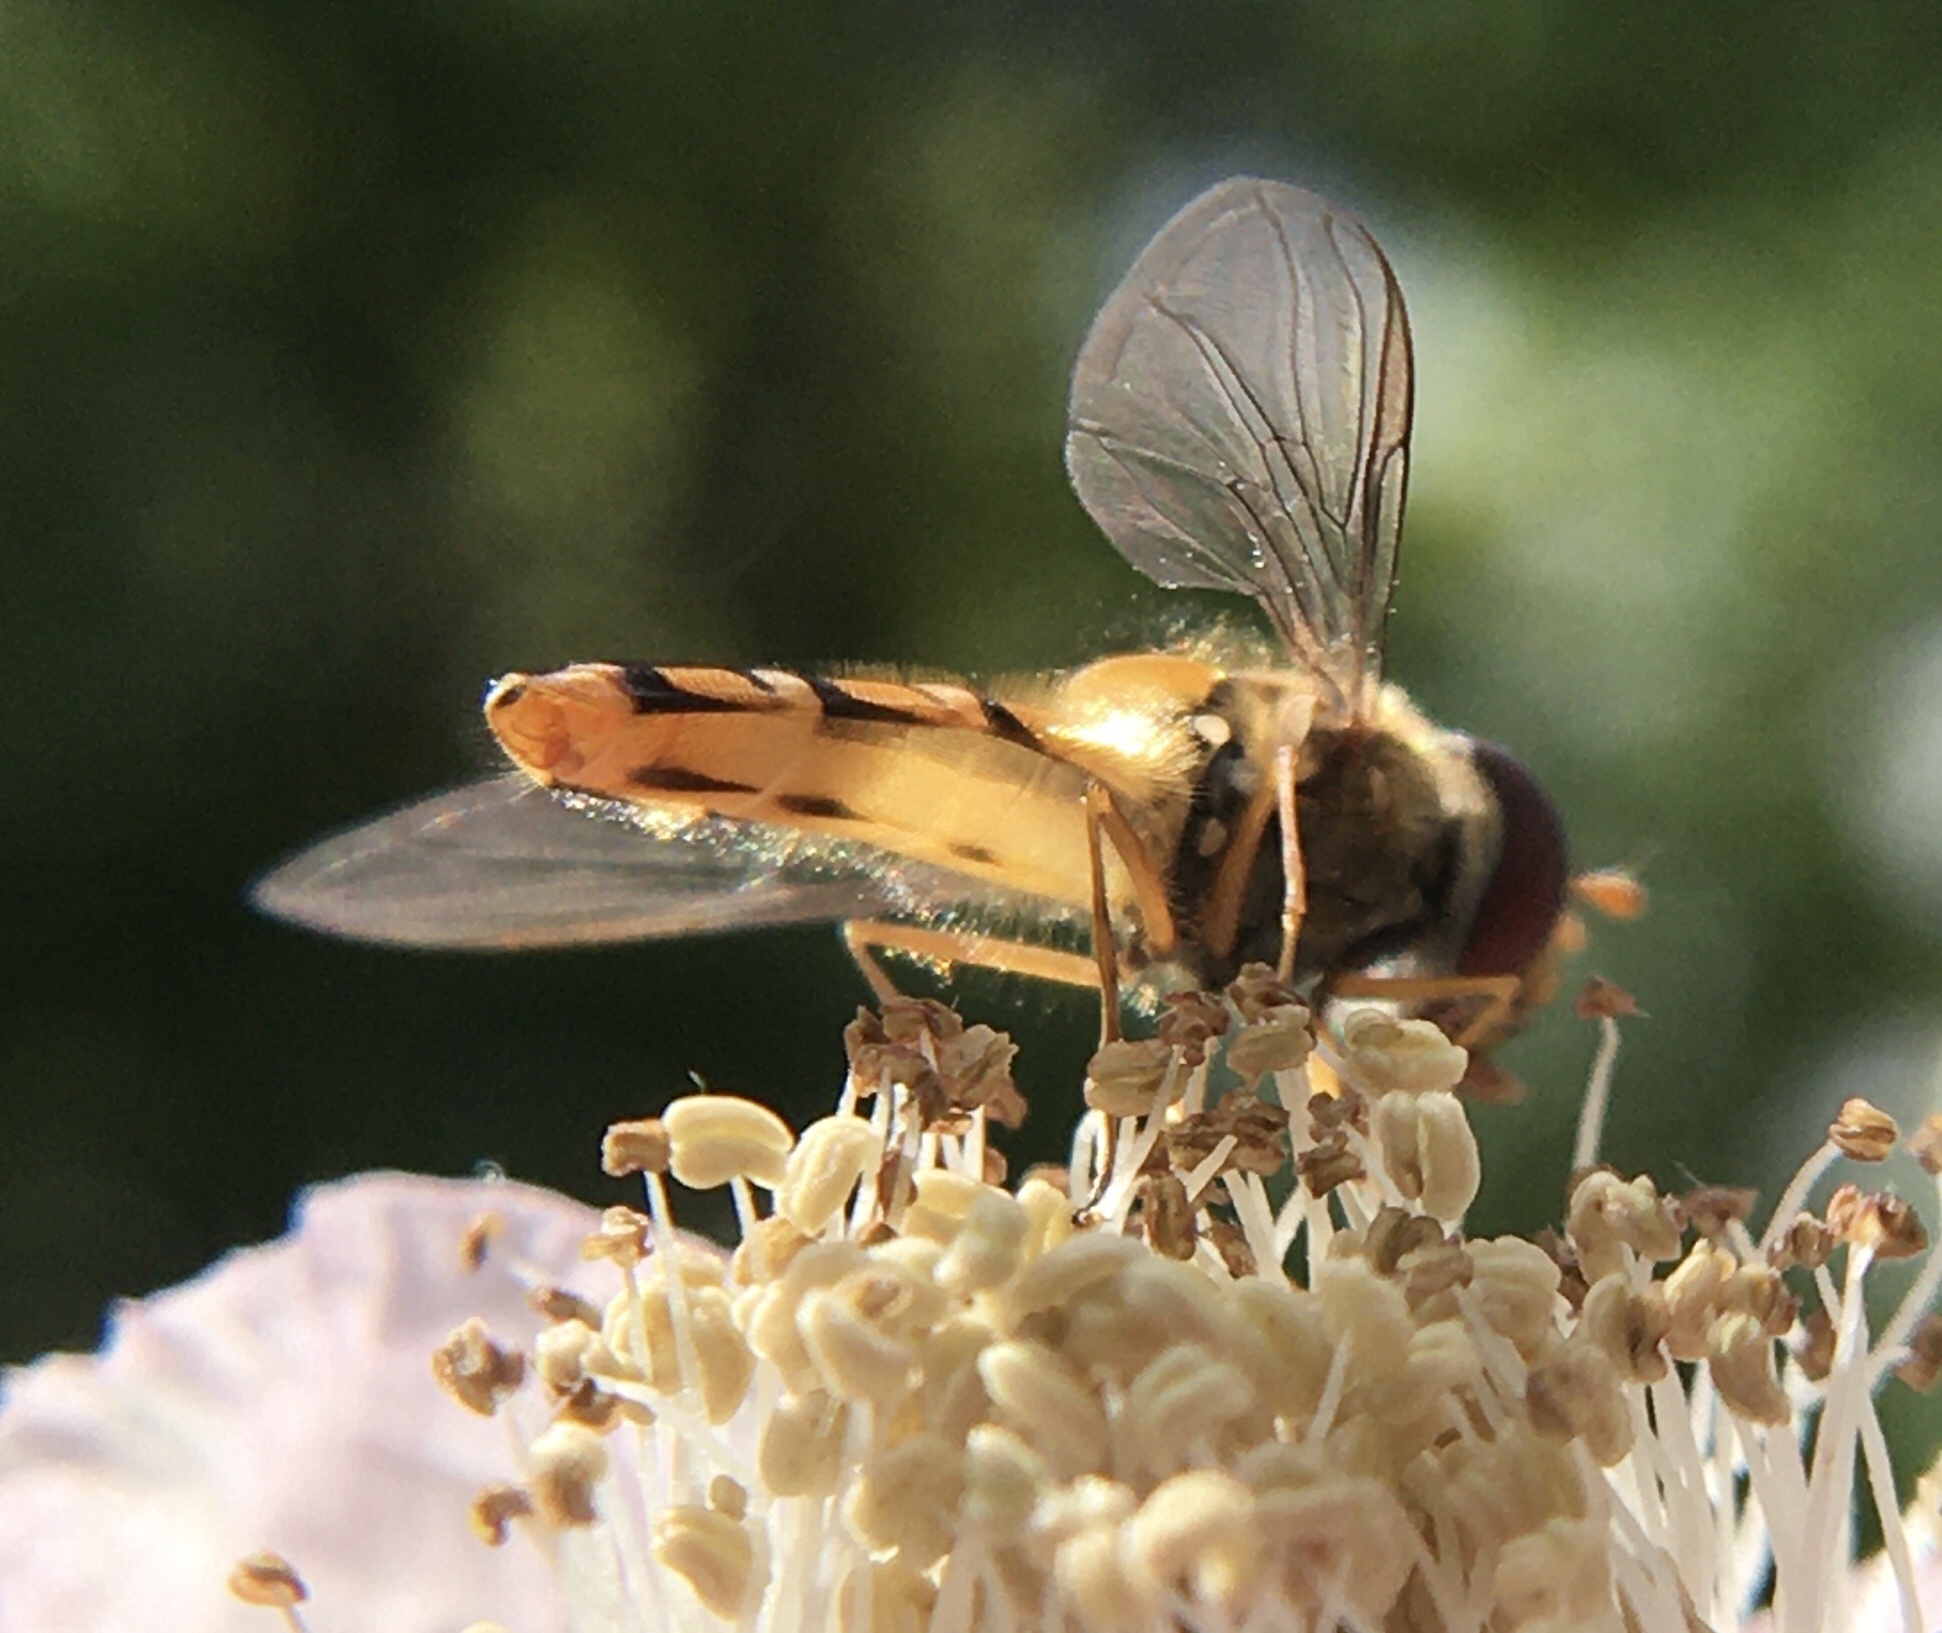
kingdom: Animalia
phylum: Arthropoda
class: Insecta
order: Diptera
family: Syrphidae
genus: Episyrphus
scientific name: Episyrphus balteatus
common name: Marmalade hoverfly
